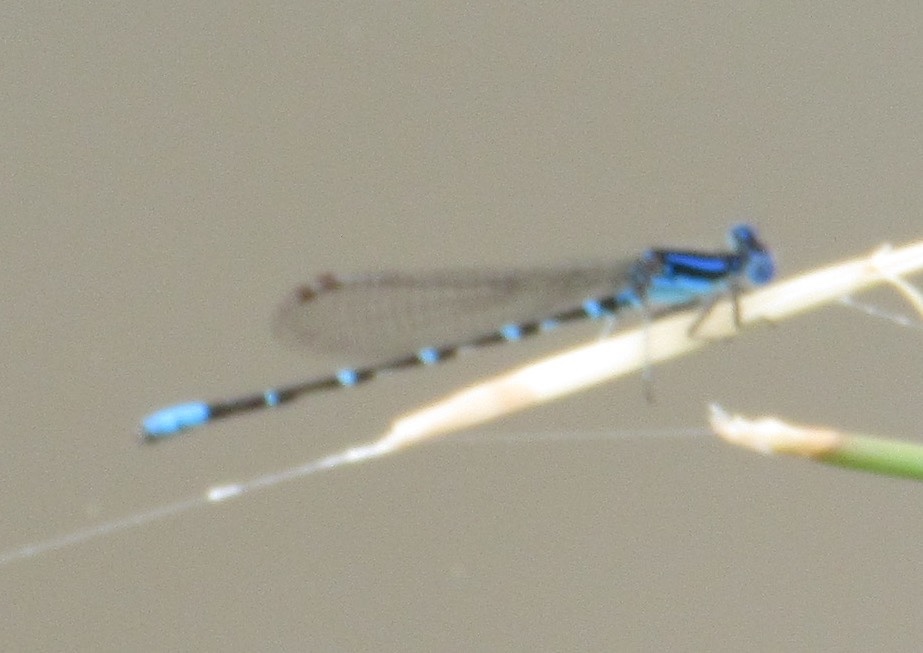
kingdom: Animalia
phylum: Arthropoda
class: Insecta
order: Odonata
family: Coenagrionidae
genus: Argia
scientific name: Argia sedula
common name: Blue-ringed dancer
